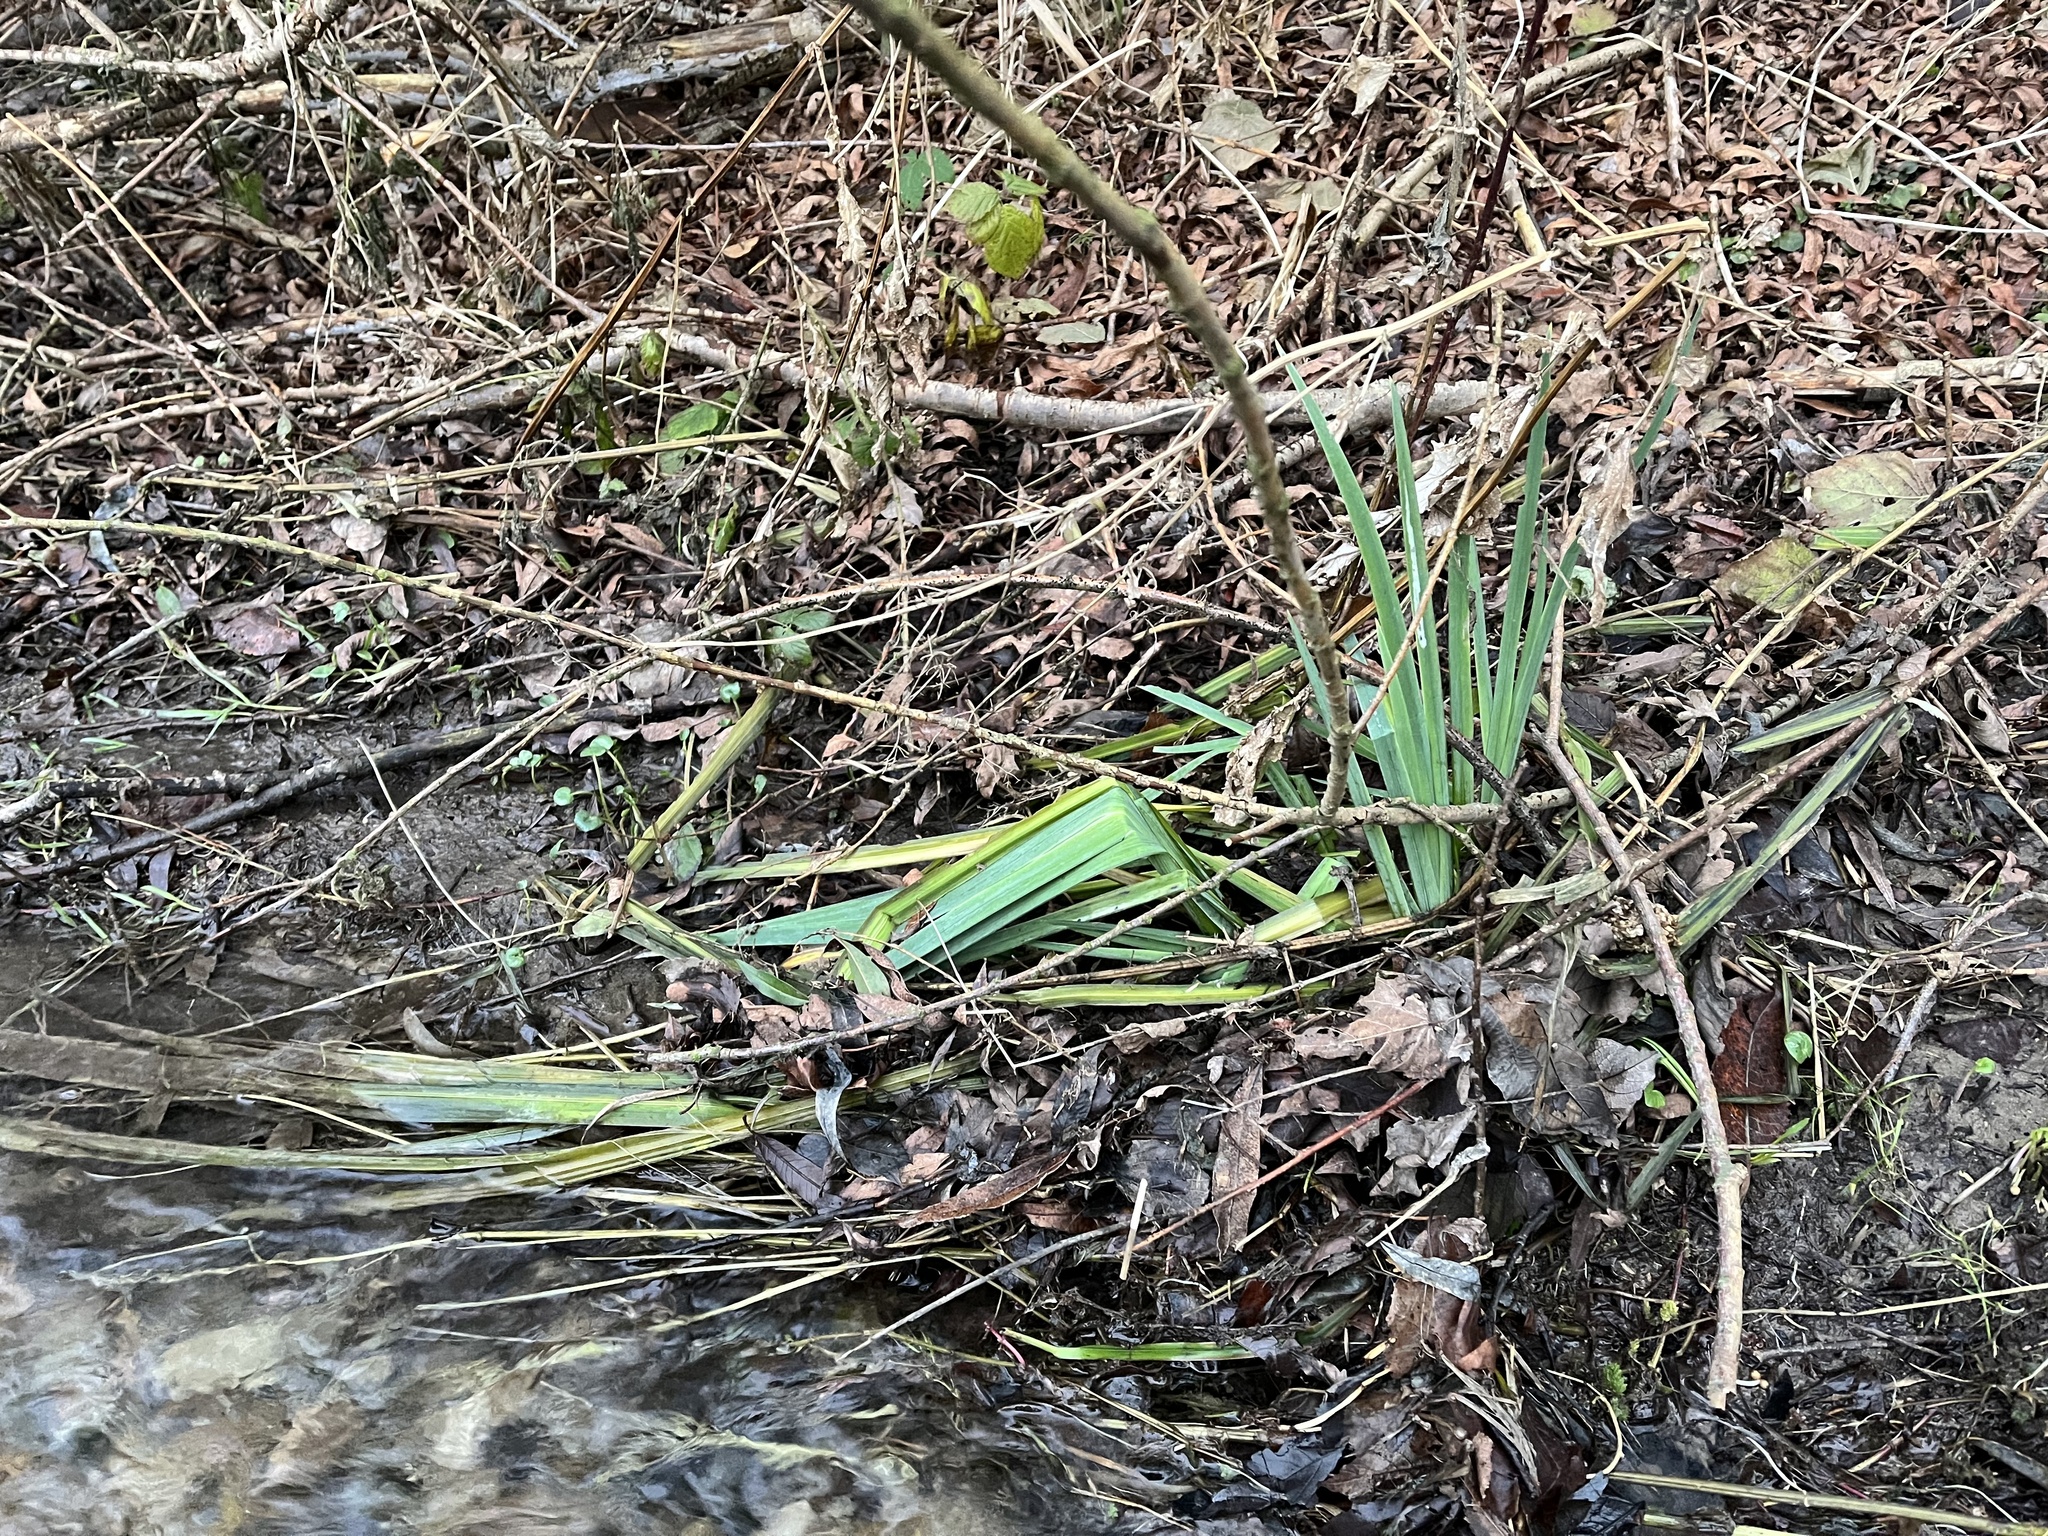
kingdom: Plantae
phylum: Tracheophyta
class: Liliopsida
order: Asparagales
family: Iridaceae
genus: Iris
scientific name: Iris pseudacorus
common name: Yellow flag
